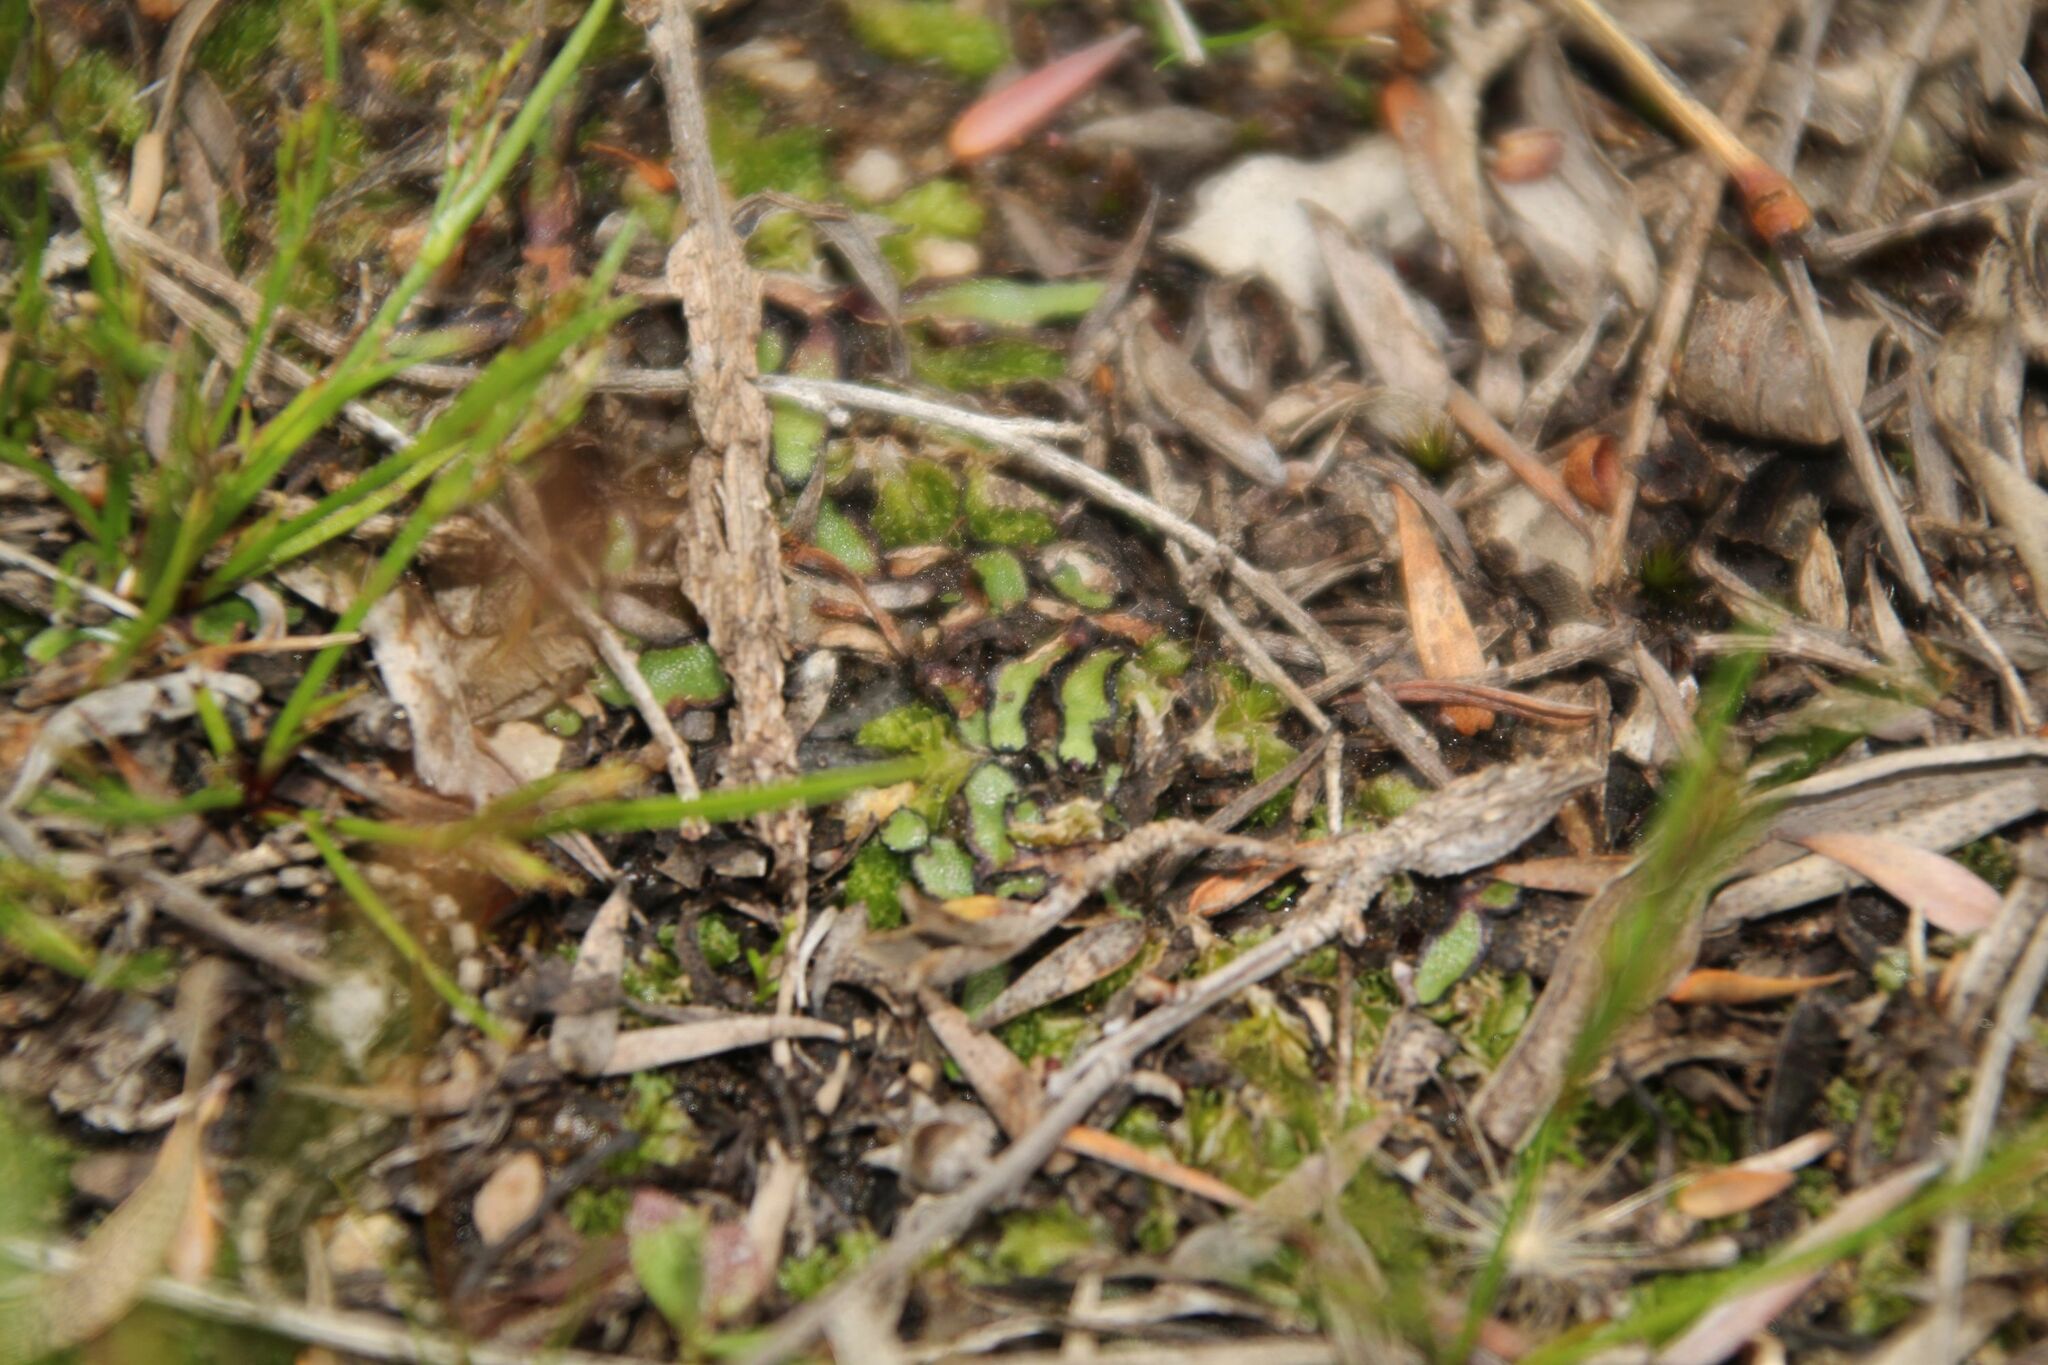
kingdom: Plantae
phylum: Marchantiophyta
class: Marchantiopsida
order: Marchantiales
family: Aytoniaceae
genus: Asterella
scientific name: Asterella drummondii
